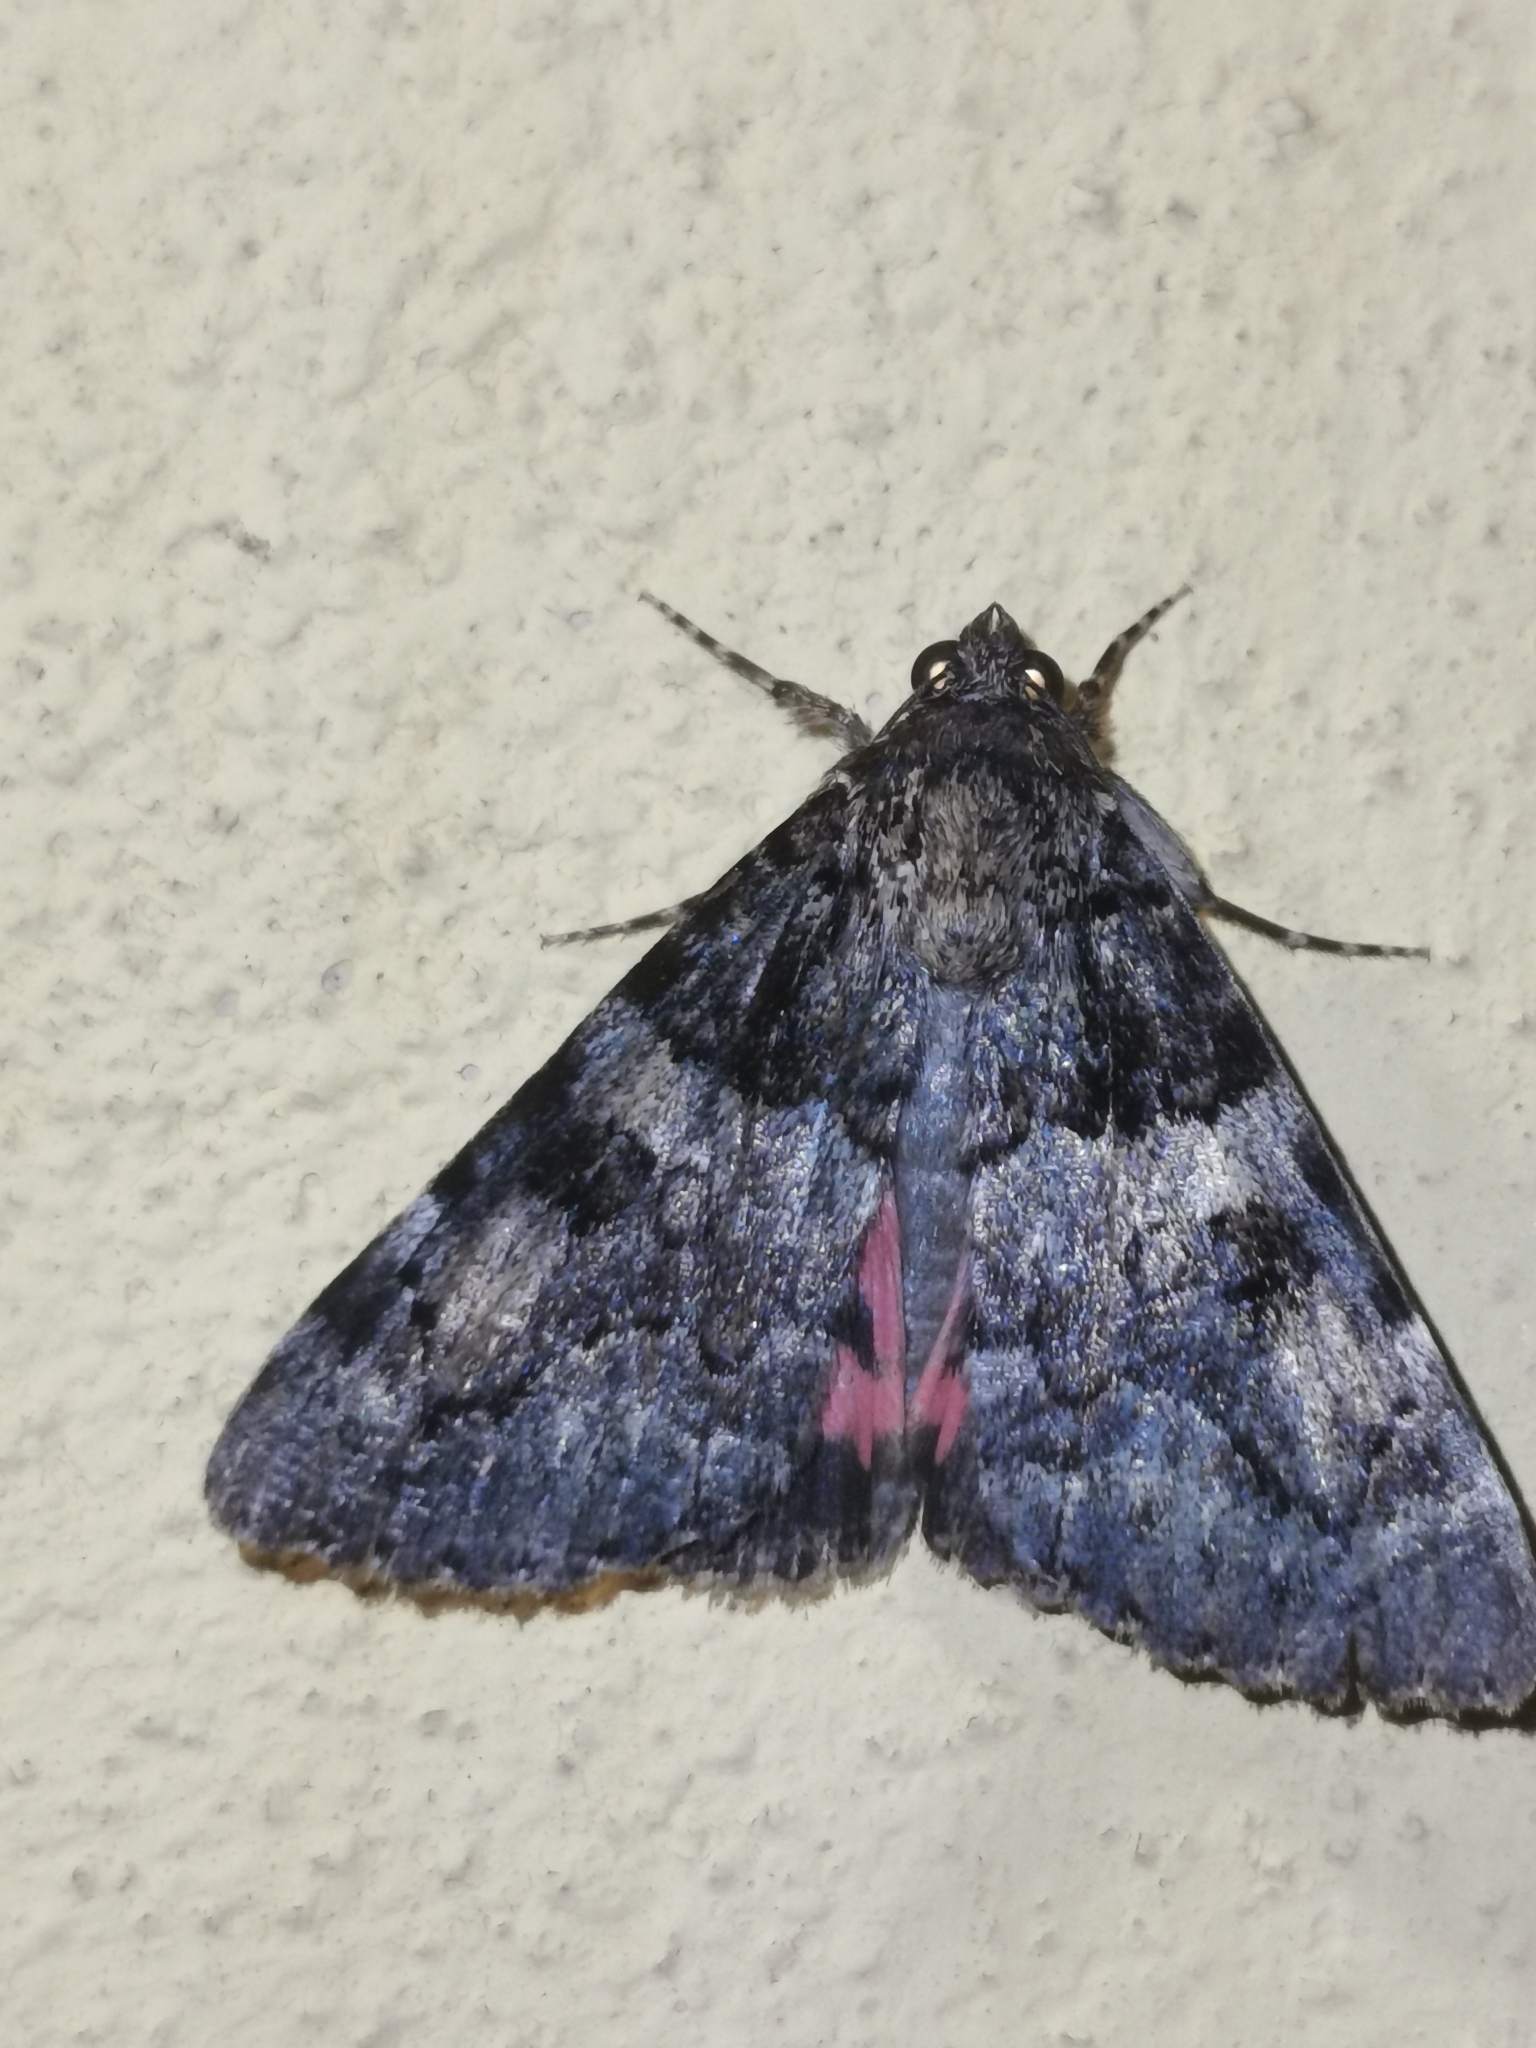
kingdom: Animalia
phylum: Arthropoda
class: Insecta
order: Lepidoptera
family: Erebidae
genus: Catocala
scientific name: Catocala coniuncta
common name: Minsmere crimson underwing
